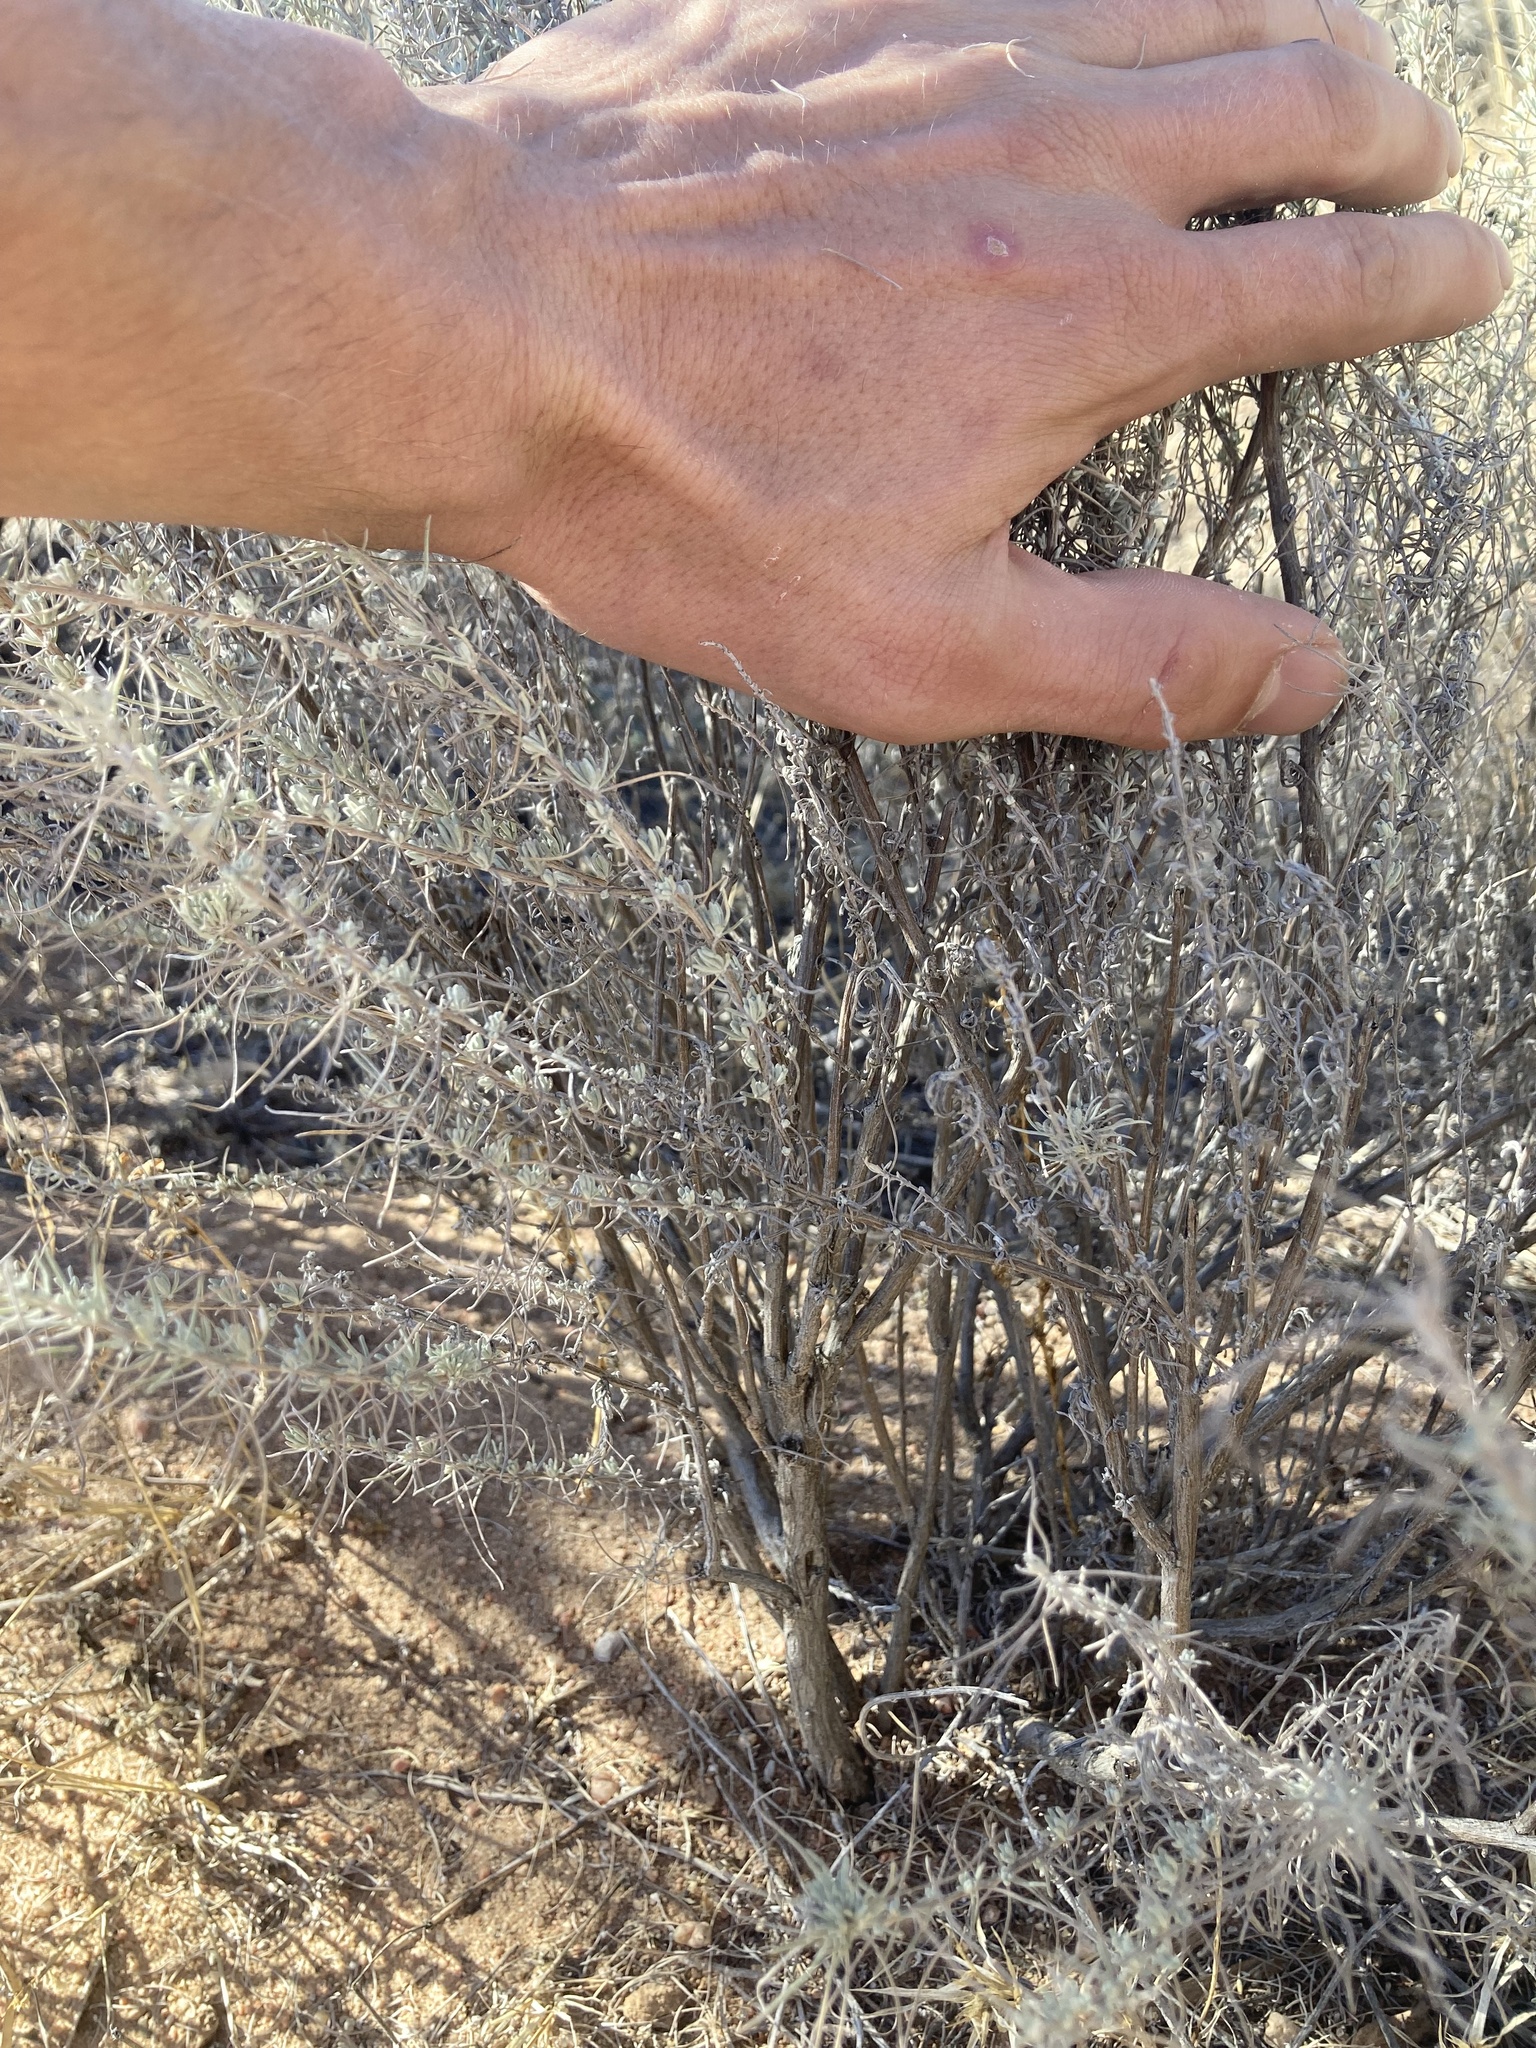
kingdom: Plantae
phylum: Tracheophyta
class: Magnoliopsida
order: Asterales
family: Asteraceae
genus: Artemisia
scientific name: Artemisia filifolia
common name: Sand-sage
